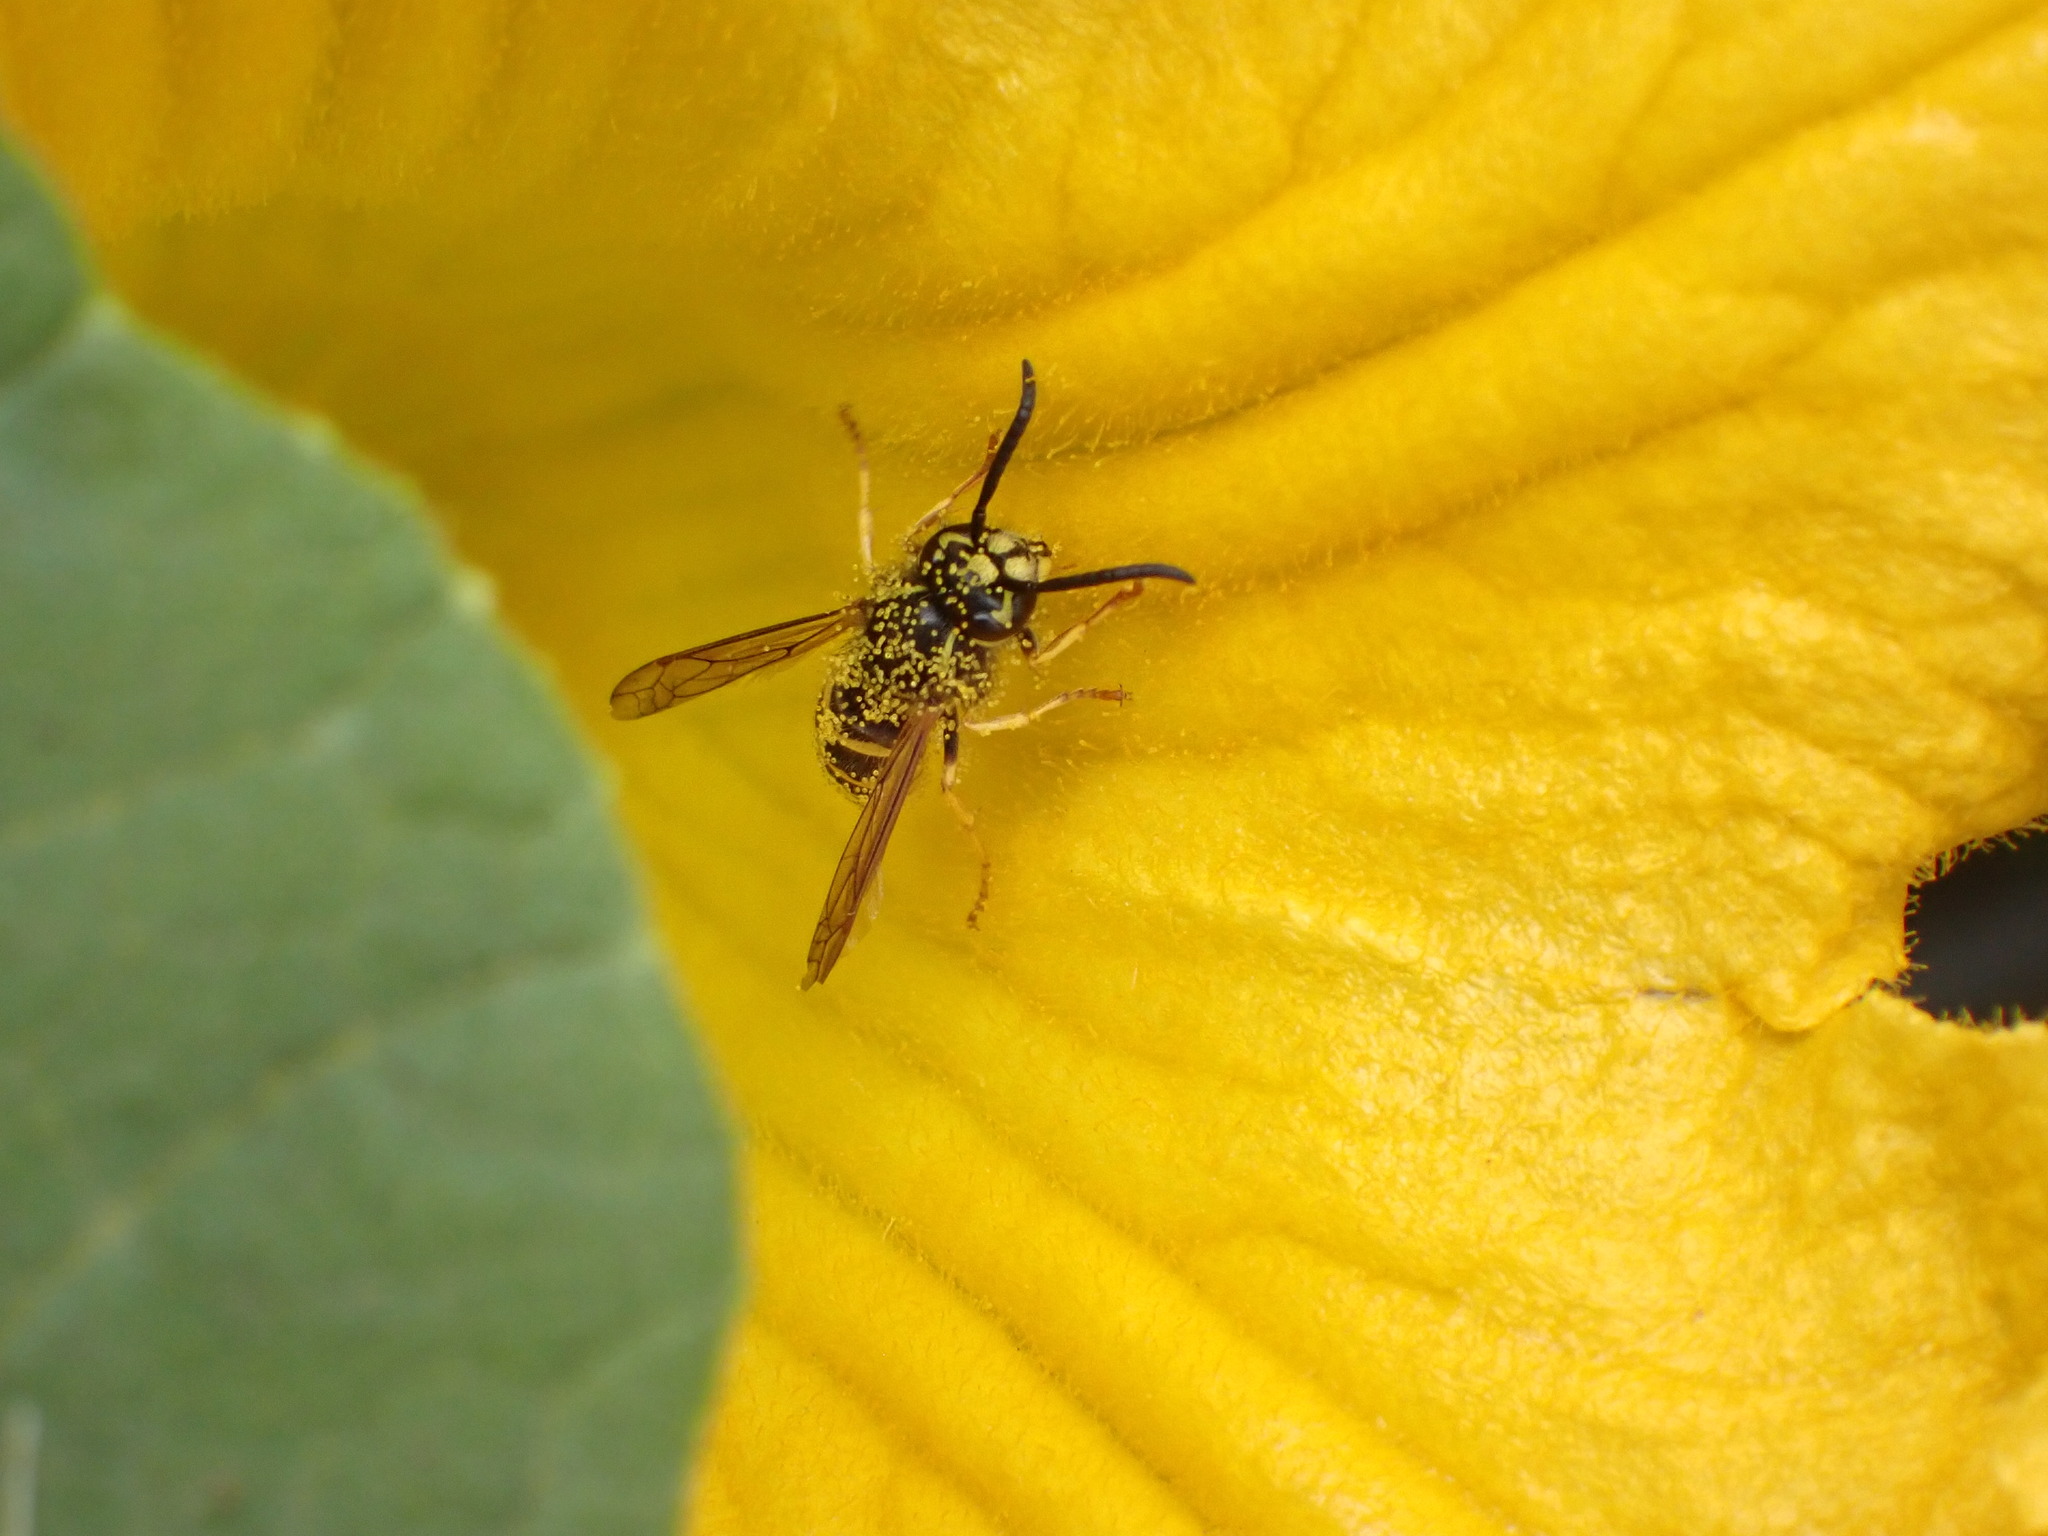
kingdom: Animalia
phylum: Arthropoda
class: Insecta
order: Hymenoptera
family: Vespidae
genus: Vespula
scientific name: Vespula alascensis
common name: Alaska yellowjacket
